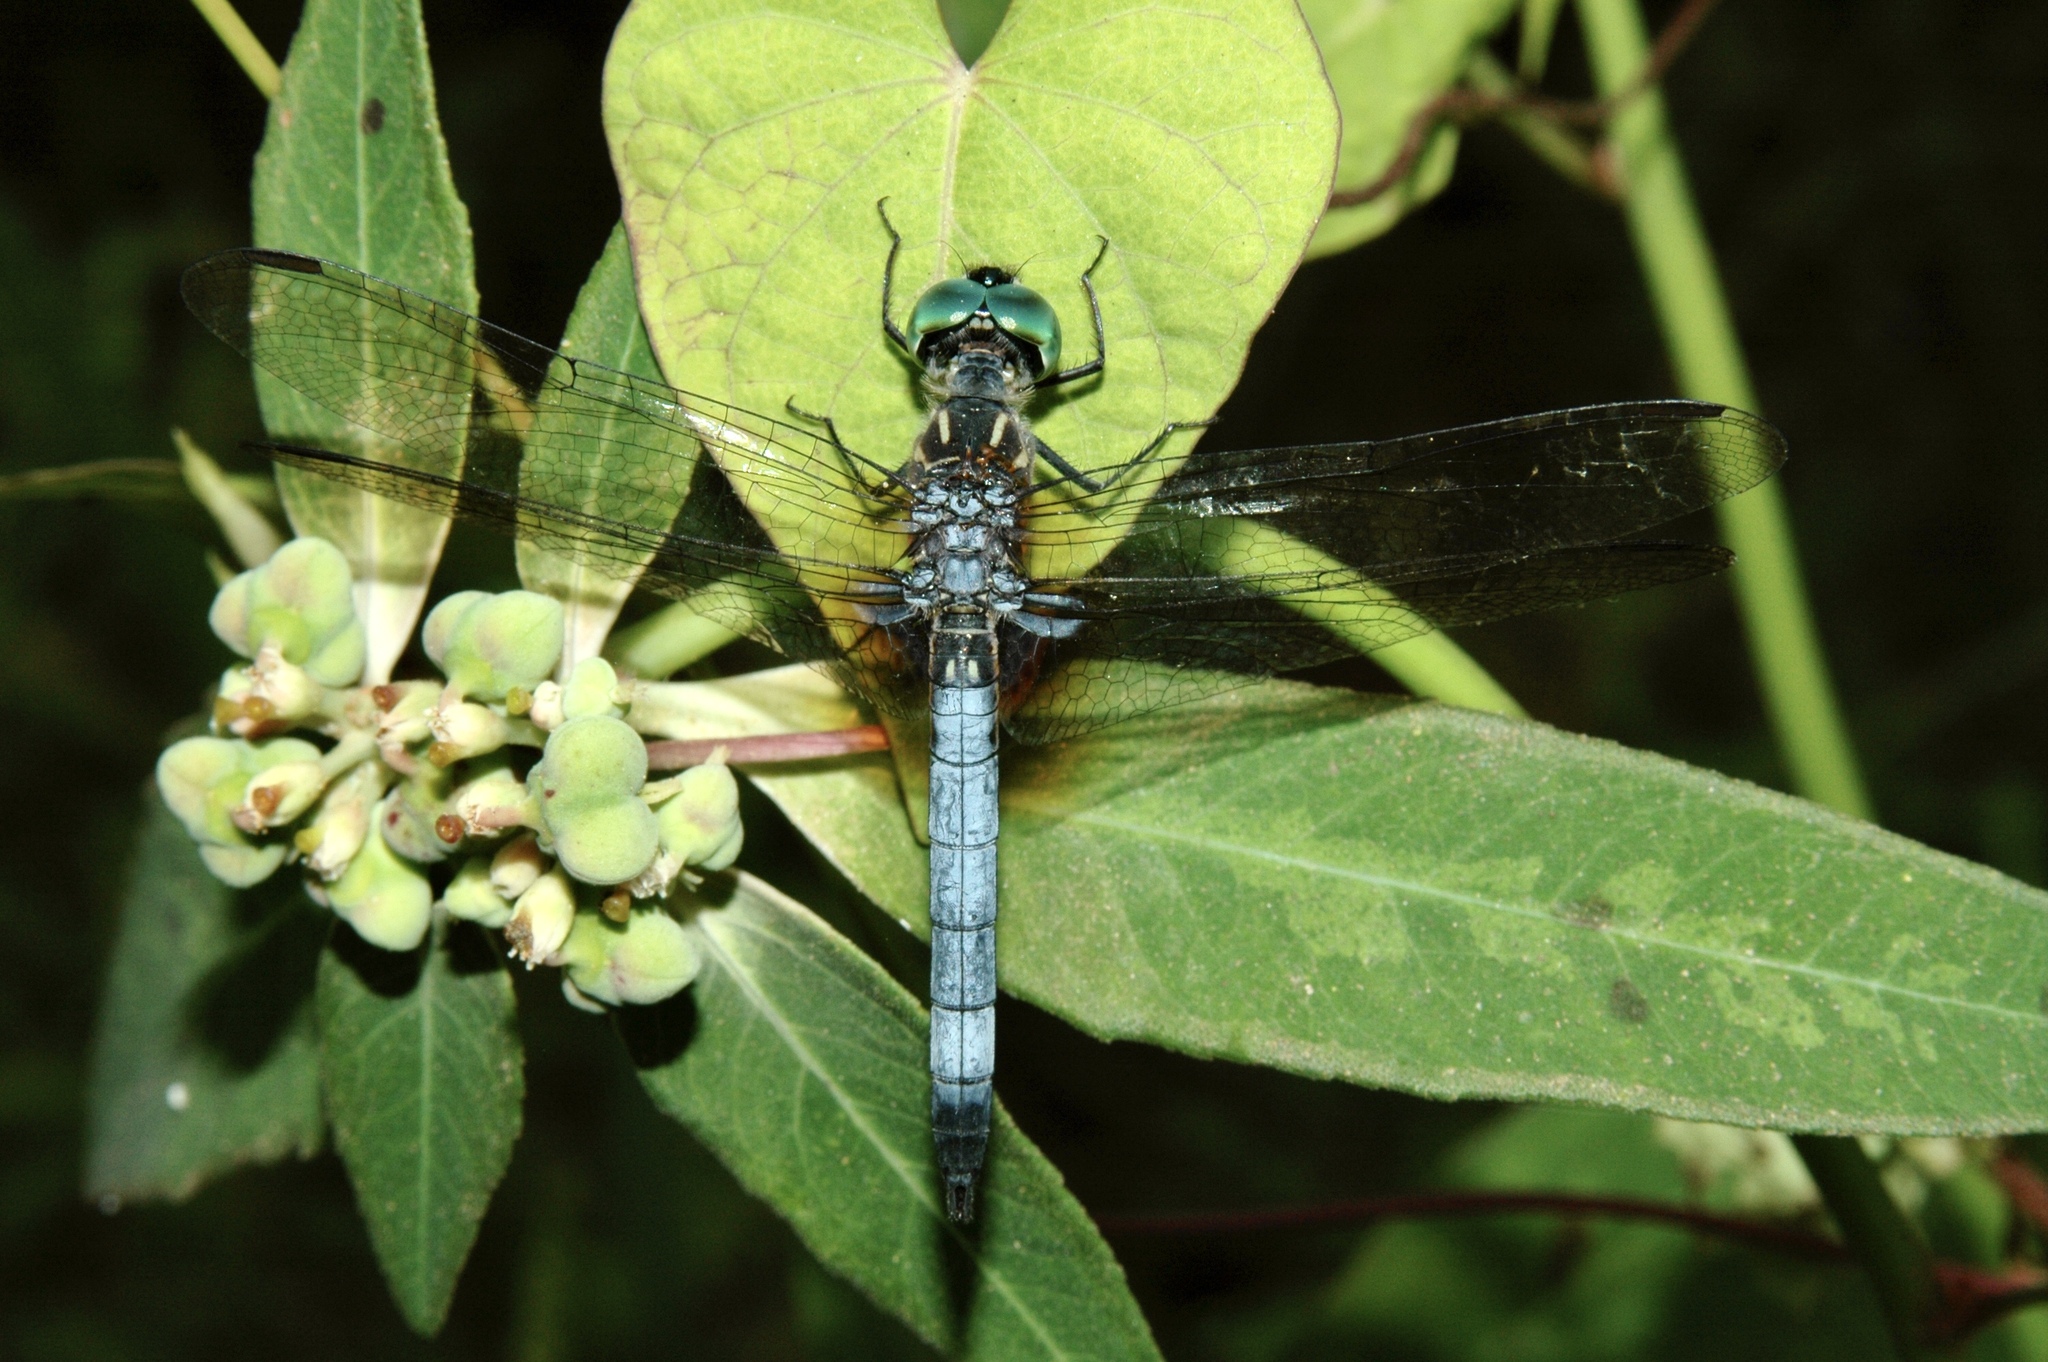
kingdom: Animalia
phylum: Arthropoda
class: Insecta
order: Odonata
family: Libellulidae
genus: Pachydiplax
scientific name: Pachydiplax longipennis
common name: Blue dasher
